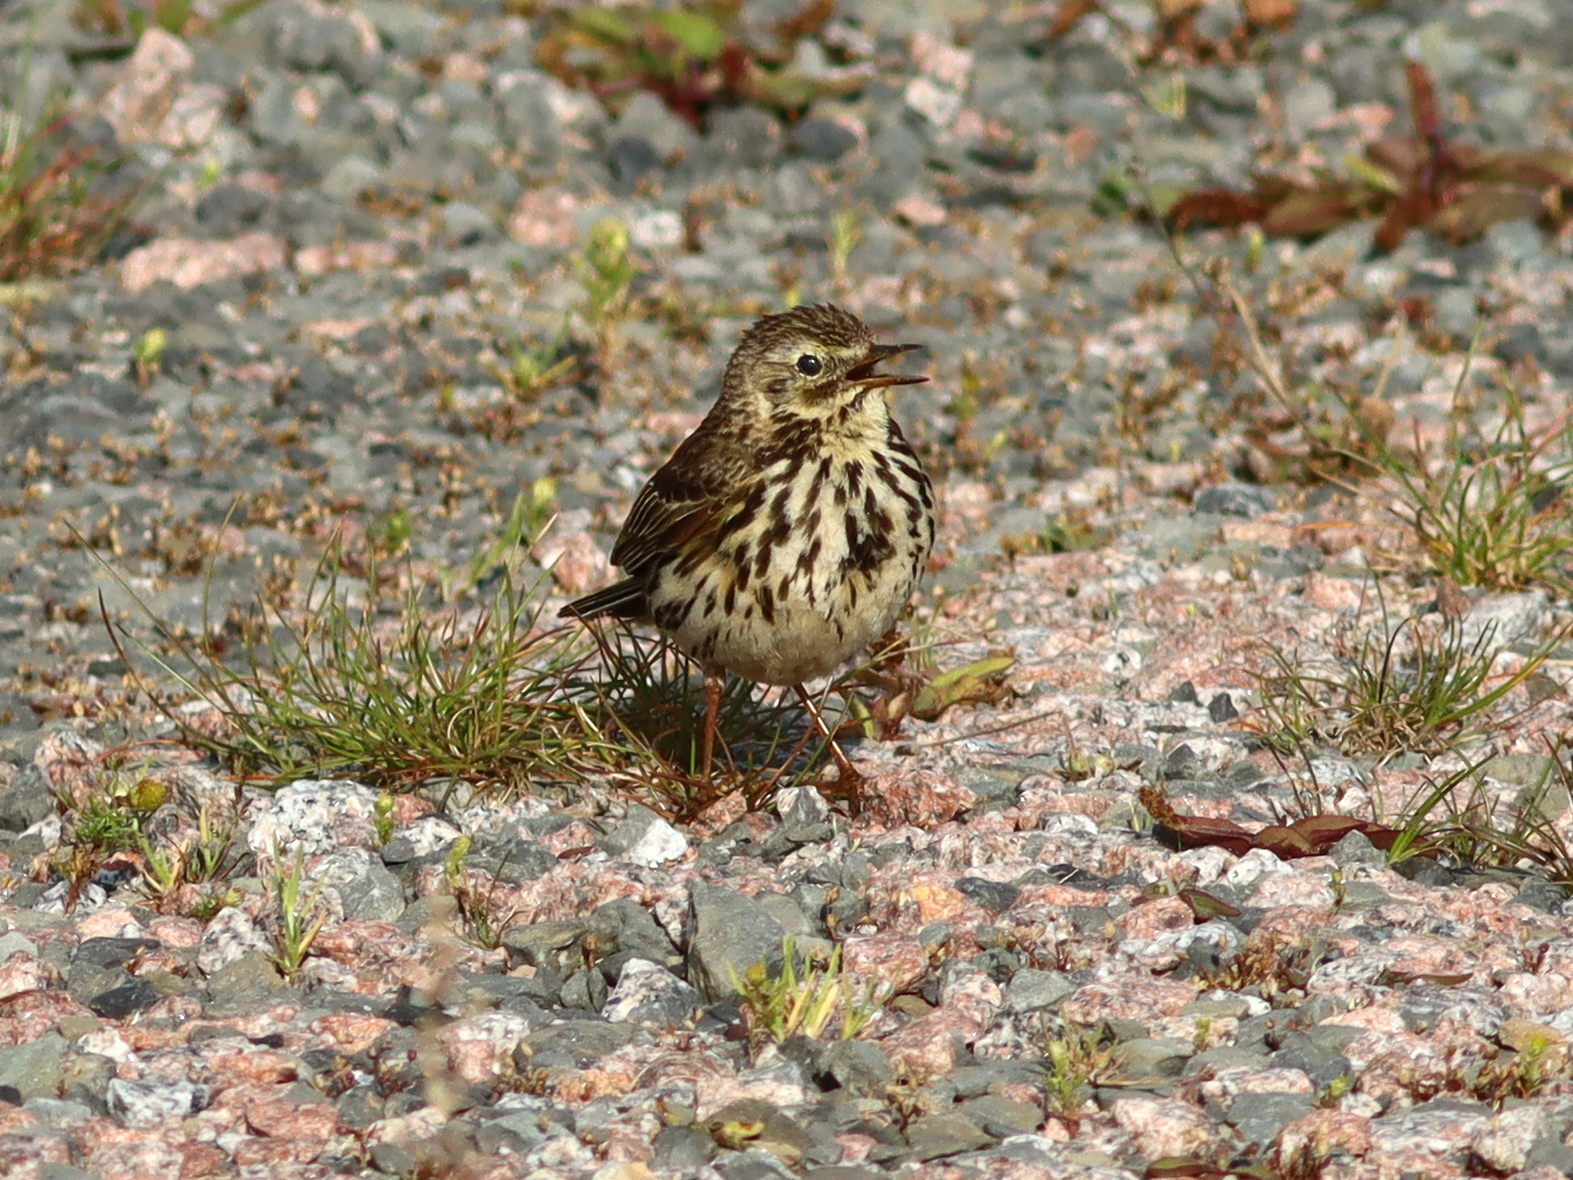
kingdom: Animalia
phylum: Chordata
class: Aves
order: Passeriformes
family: Motacillidae
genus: Anthus
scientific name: Anthus pratensis
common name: Meadow pipit
